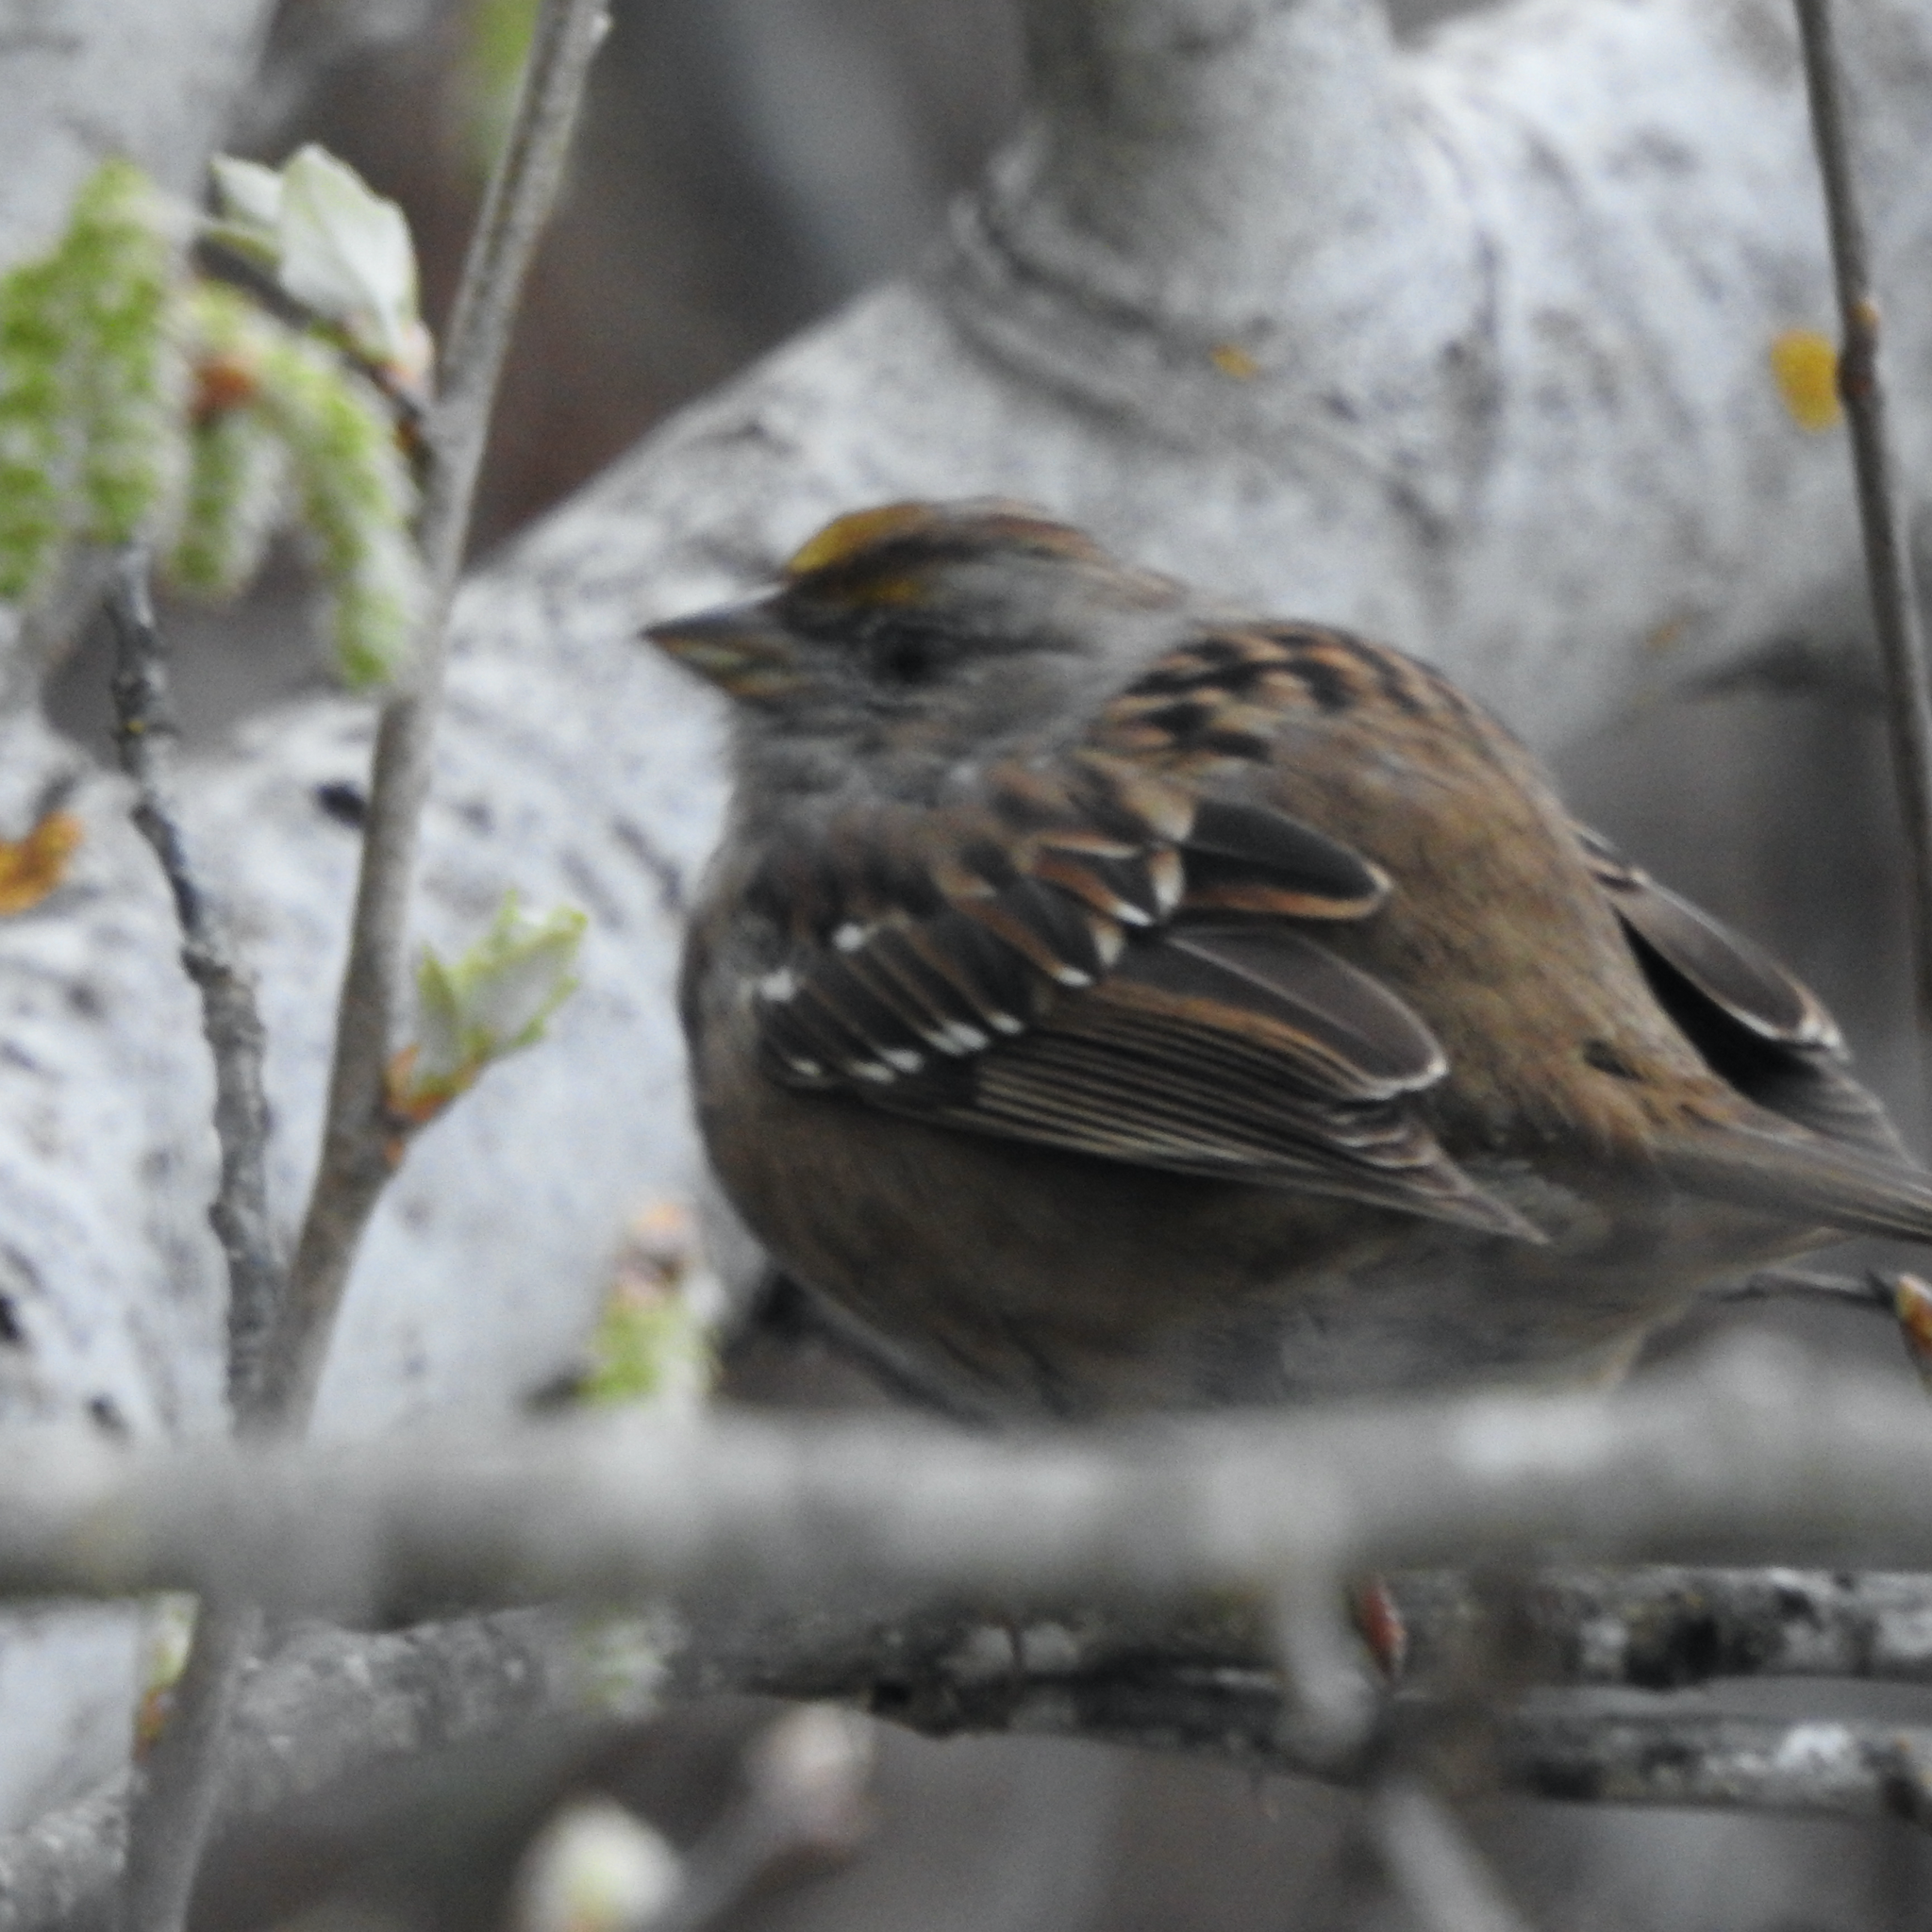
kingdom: Animalia
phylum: Chordata
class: Aves
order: Passeriformes
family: Passerellidae
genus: Zonotrichia
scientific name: Zonotrichia atricapilla
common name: Golden-crowned sparrow
